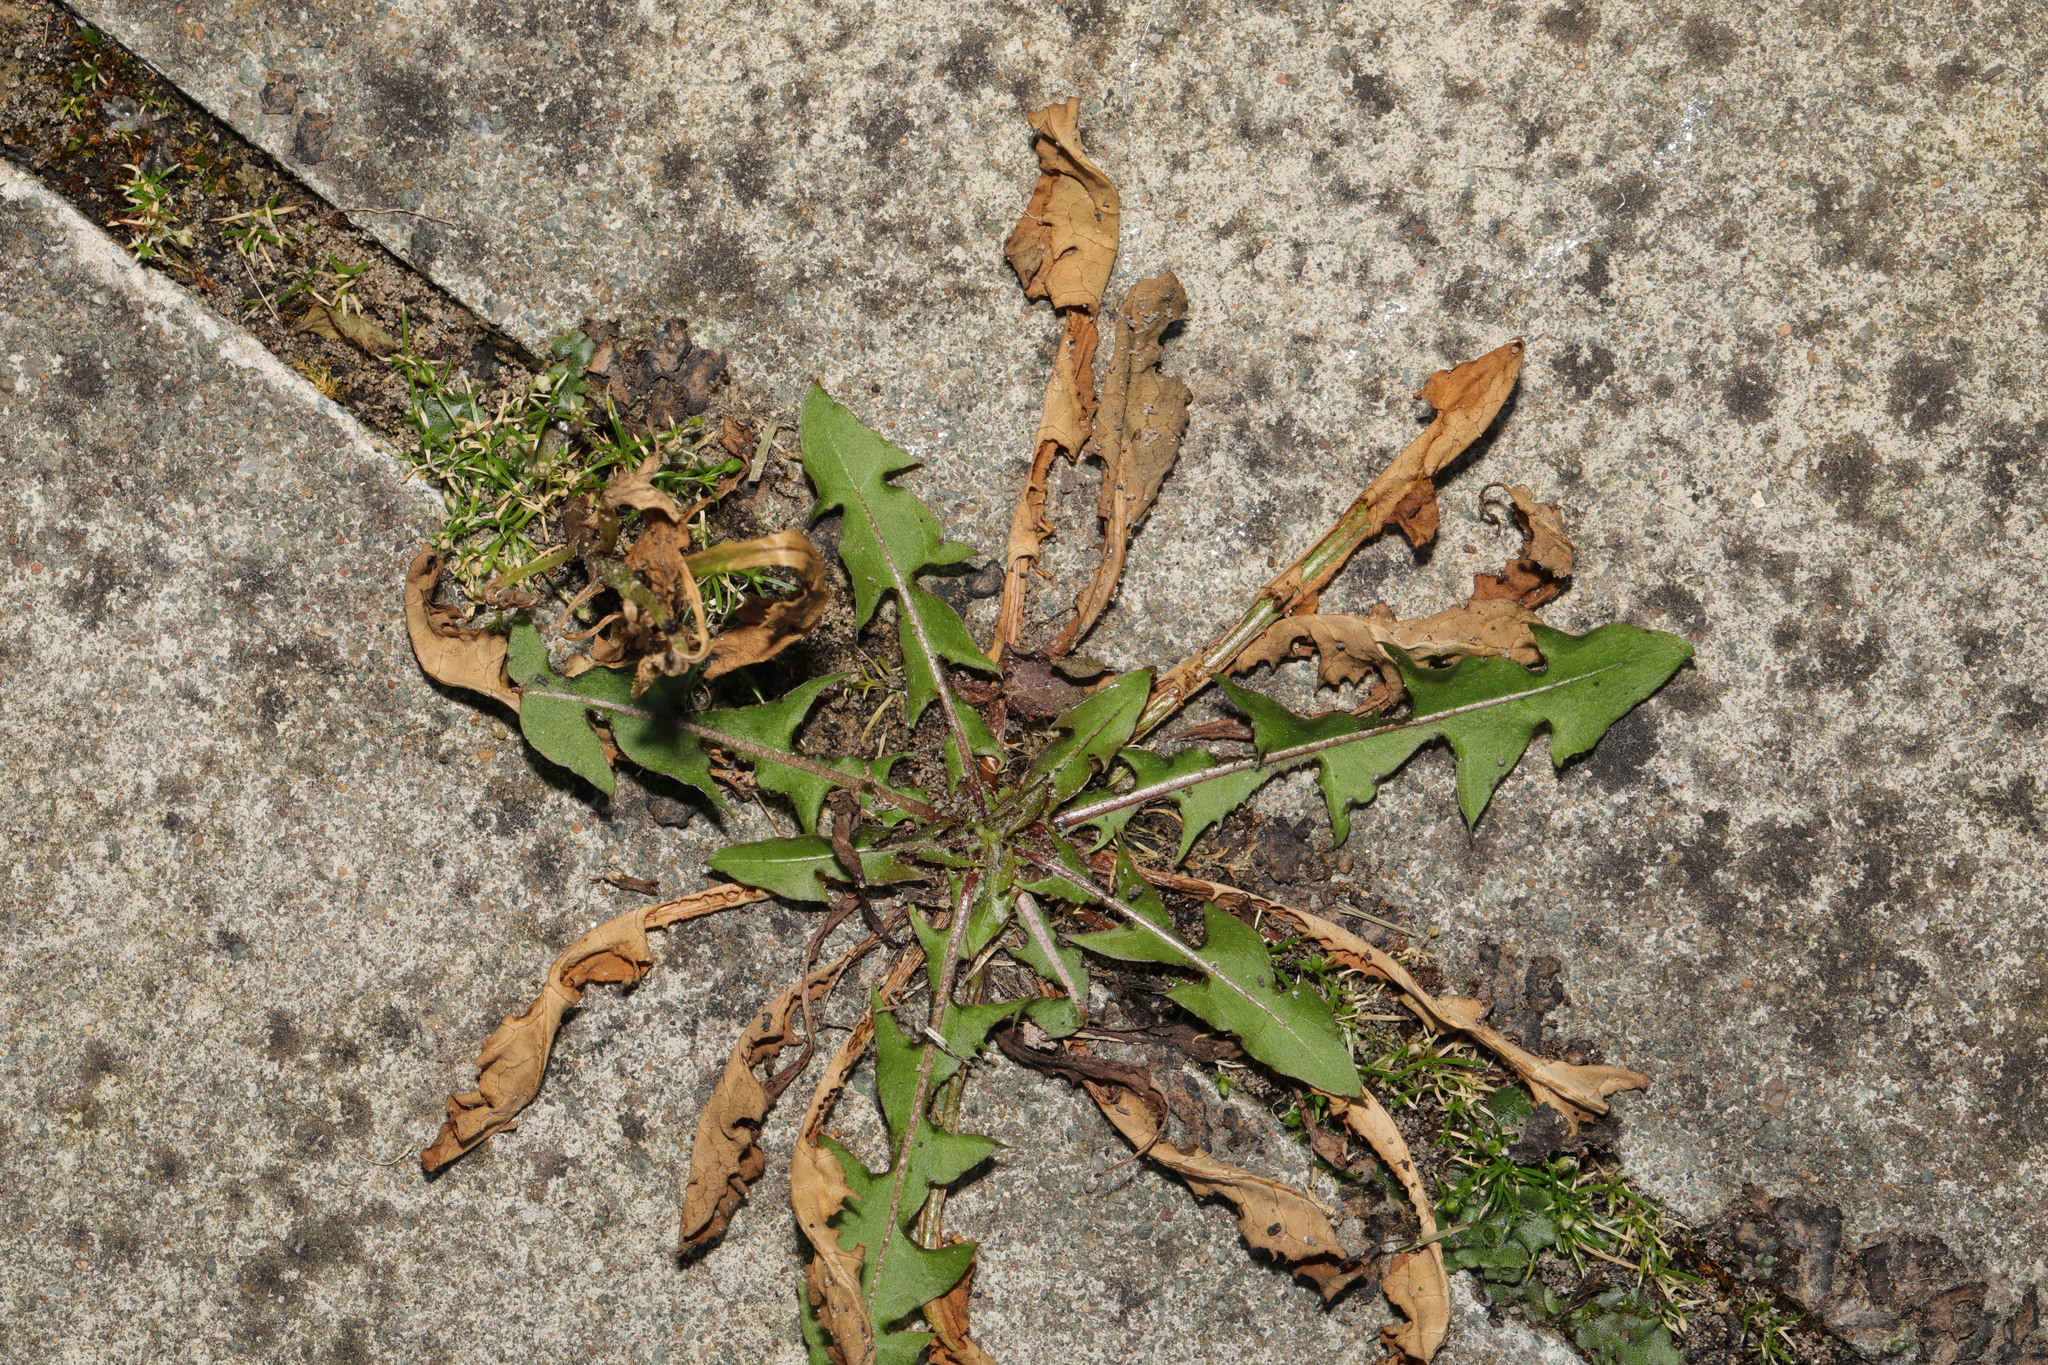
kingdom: Plantae
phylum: Tracheophyta
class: Magnoliopsida
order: Asterales
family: Asteraceae
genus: Taraxacum
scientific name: Taraxacum officinale
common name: Common dandelion
